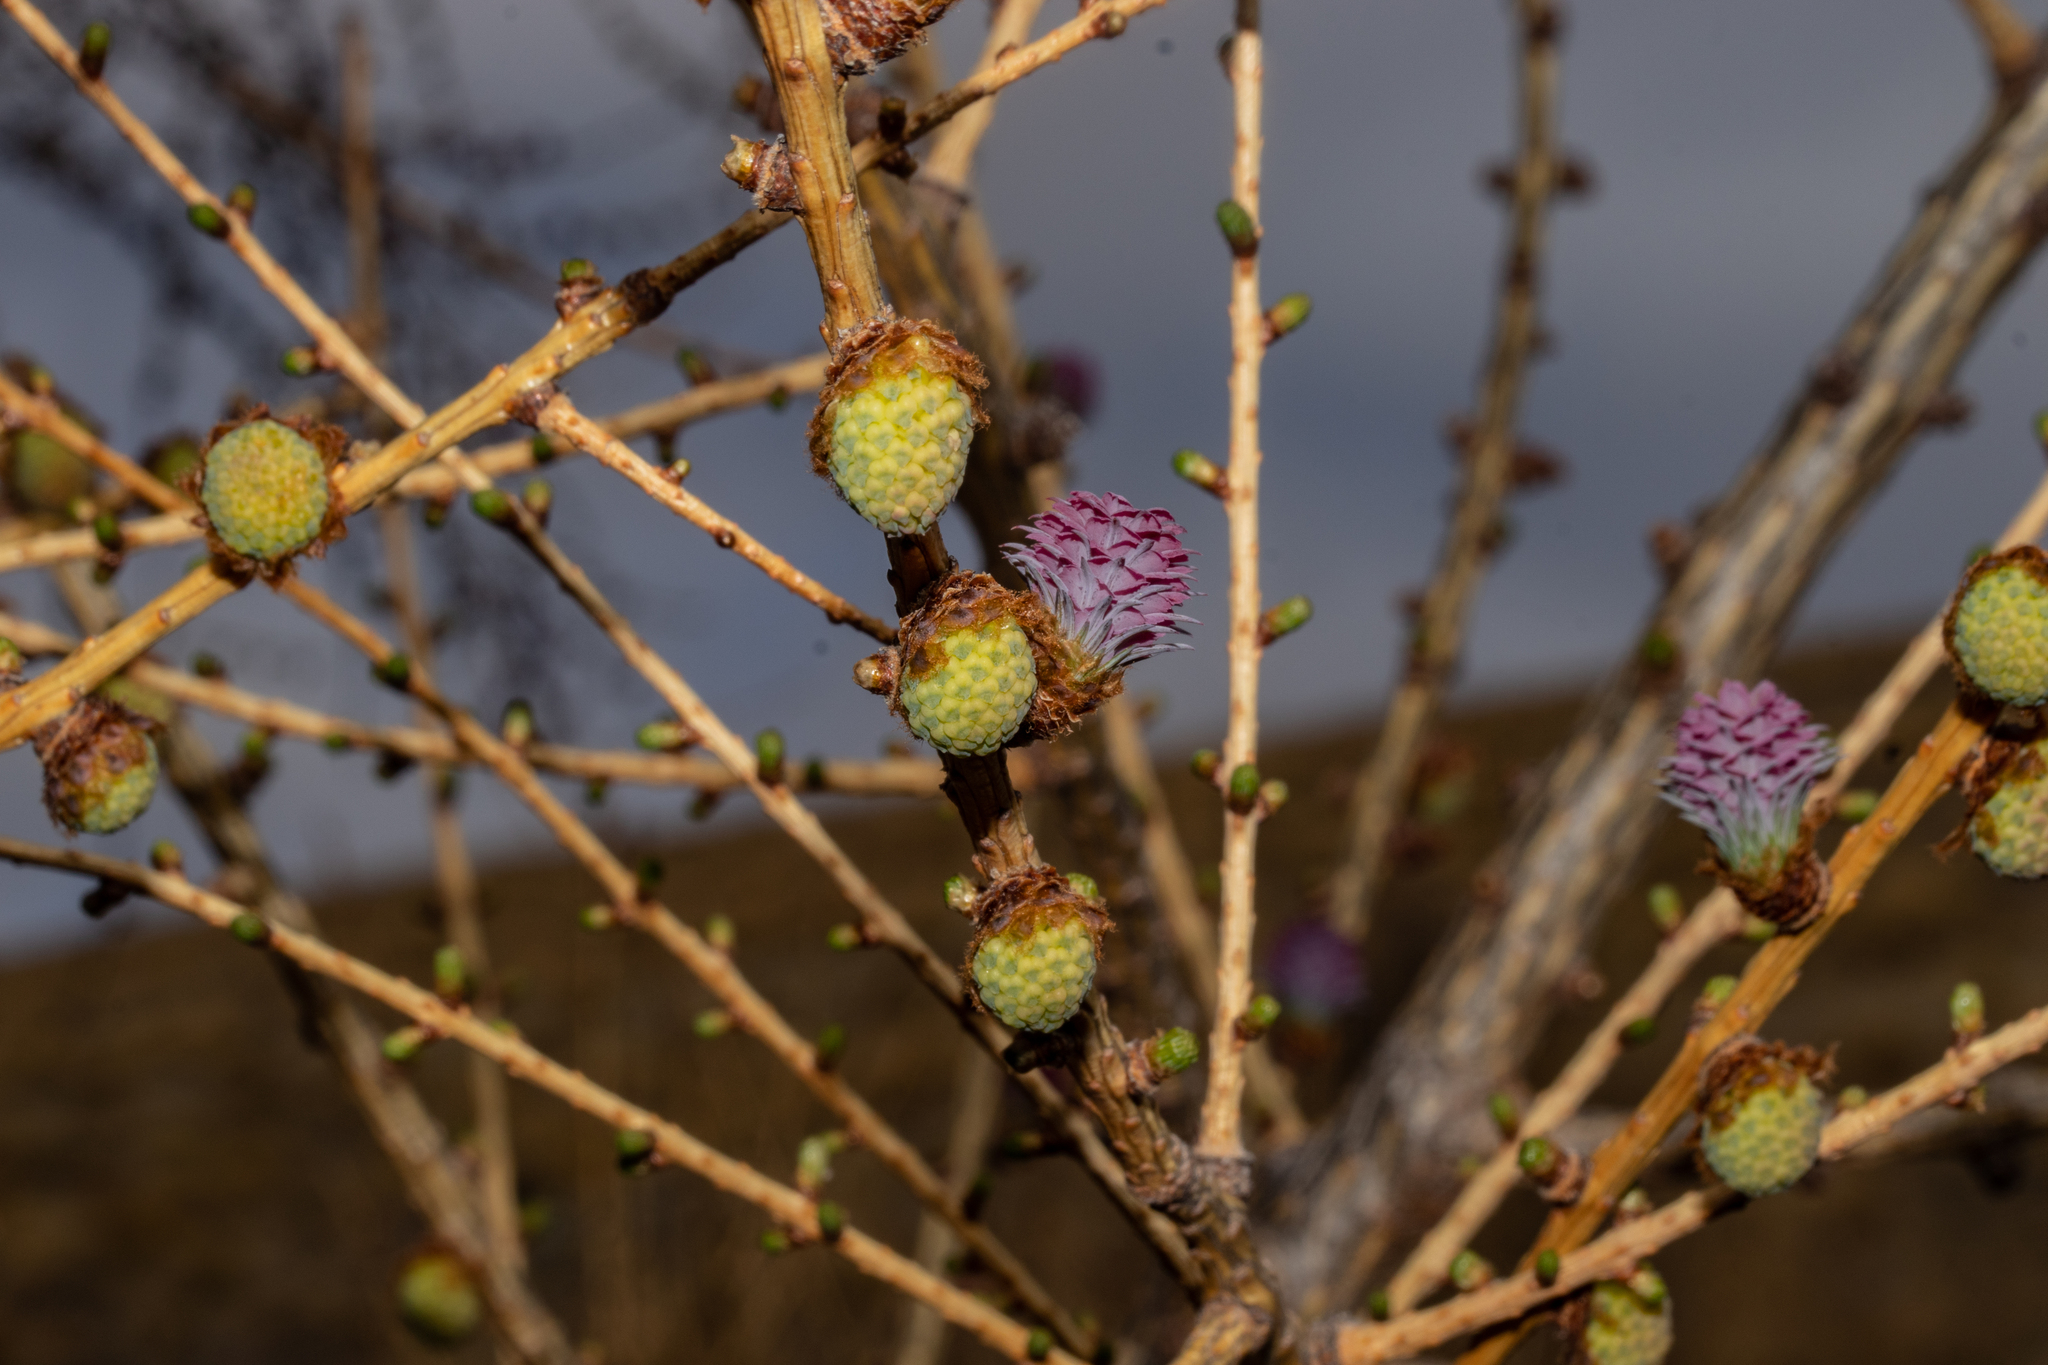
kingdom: Plantae
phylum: Tracheophyta
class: Pinopsida
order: Pinales
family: Pinaceae
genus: Larix
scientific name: Larix decidua
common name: European larch
